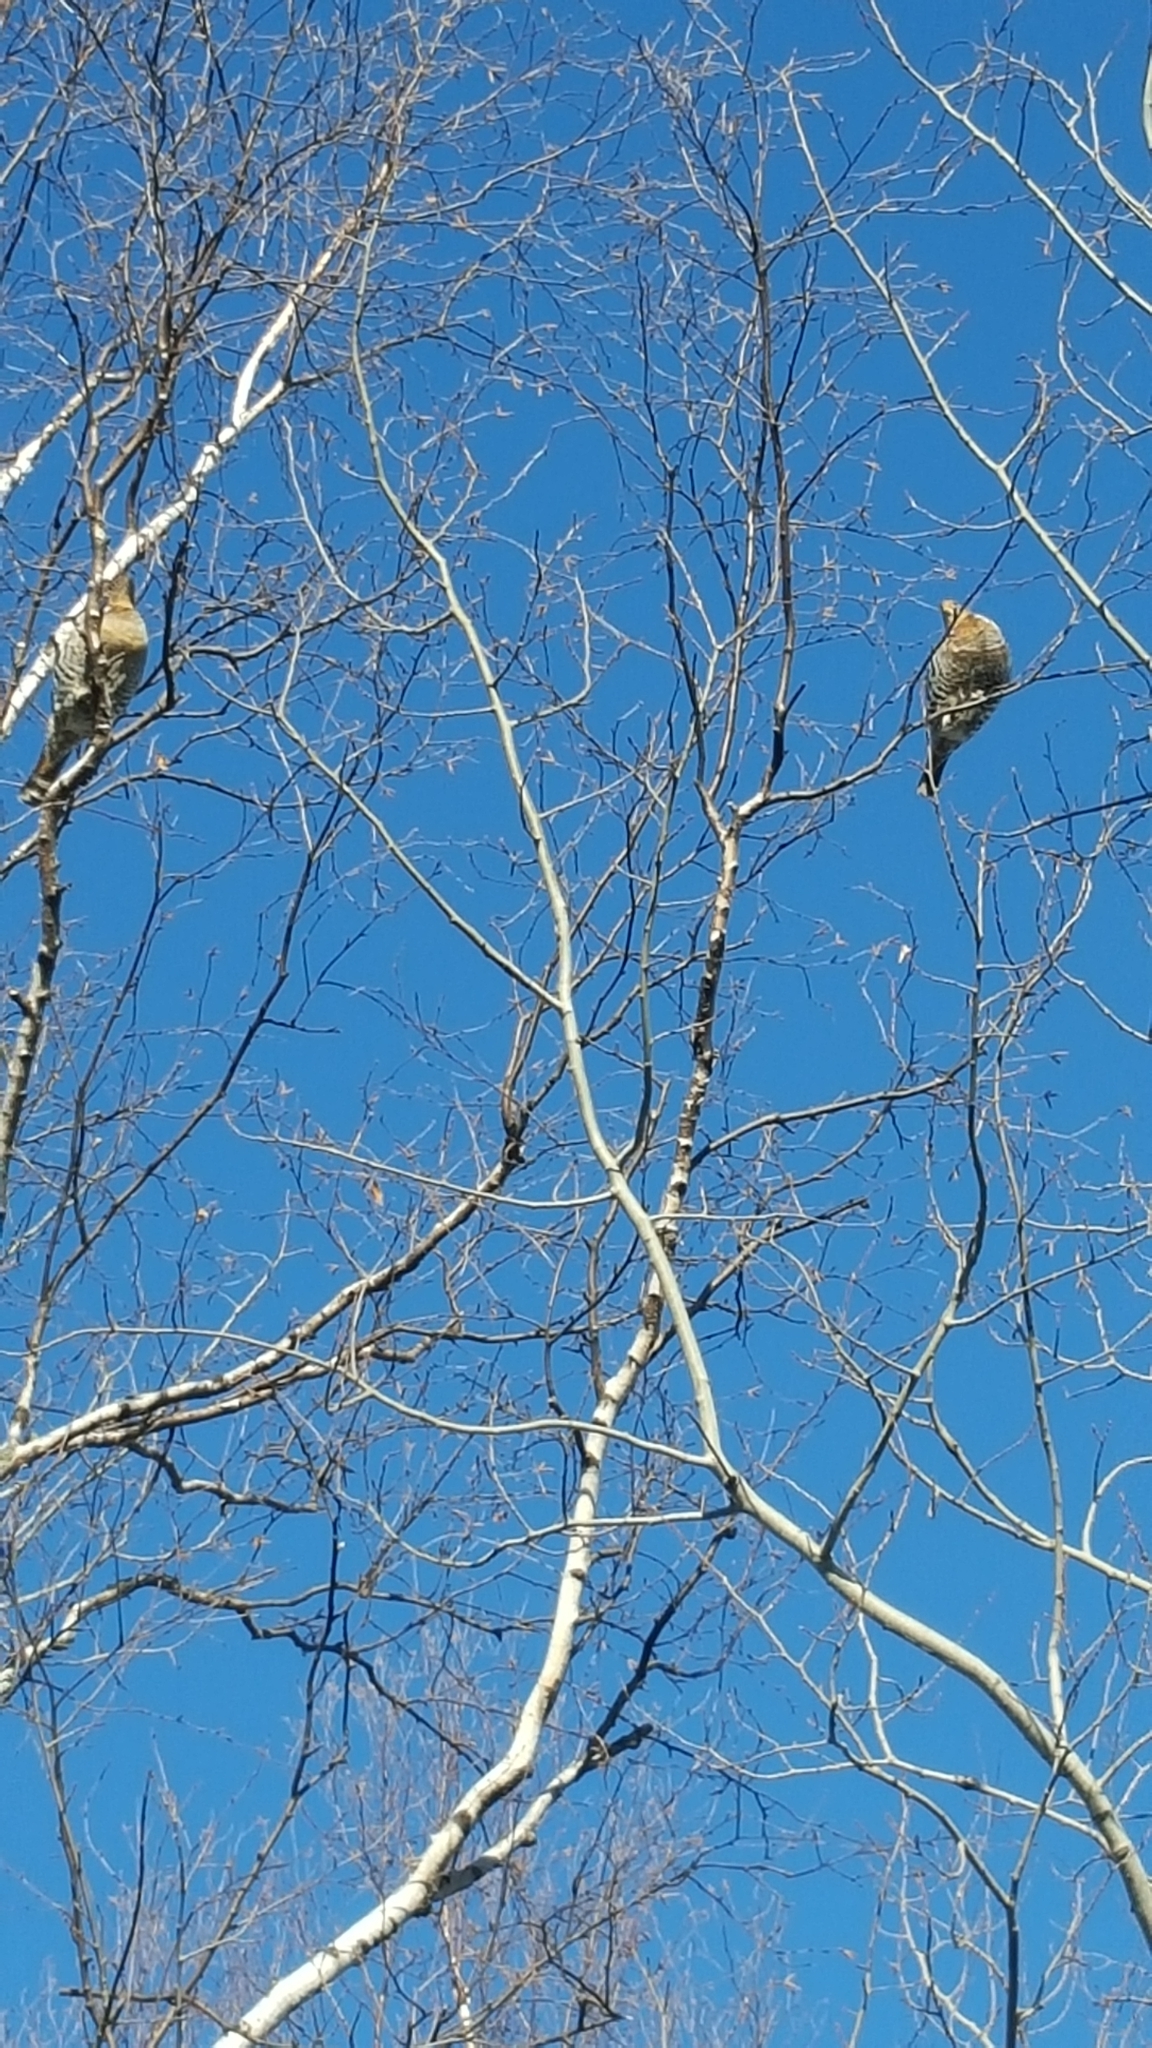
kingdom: Animalia
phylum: Chordata
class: Aves
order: Galliformes
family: Phasianidae
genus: Bonasa
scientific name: Bonasa umbellus
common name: Ruffed grouse
